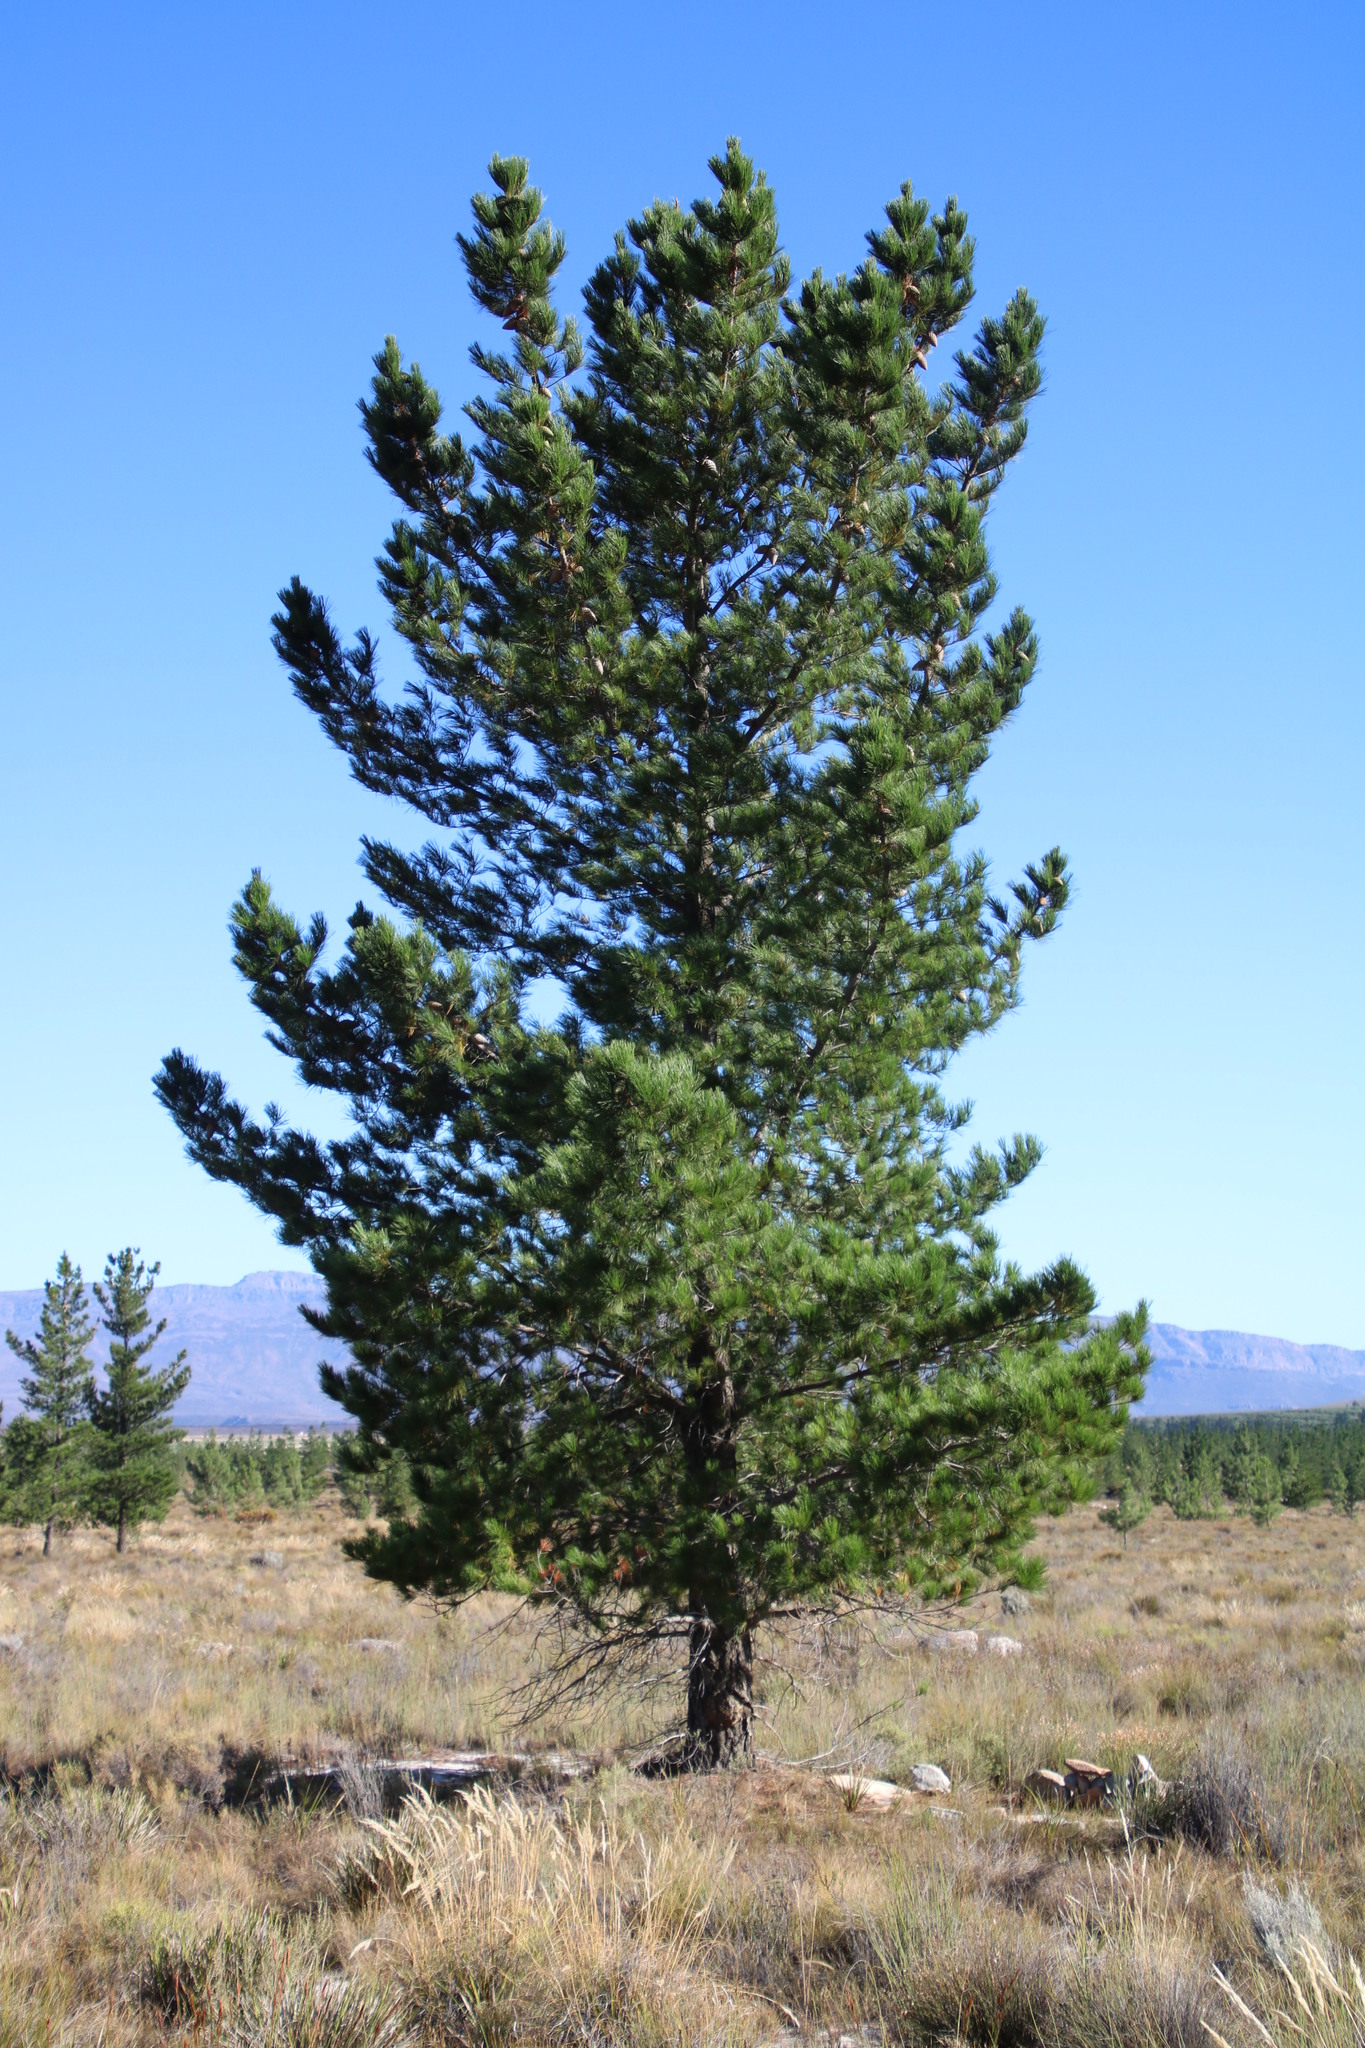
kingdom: Plantae
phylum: Tracheophyta
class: Pinopsida
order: Pinales
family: Pinaceae
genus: Pinus
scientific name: Pinus radiata
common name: Monterey pine
